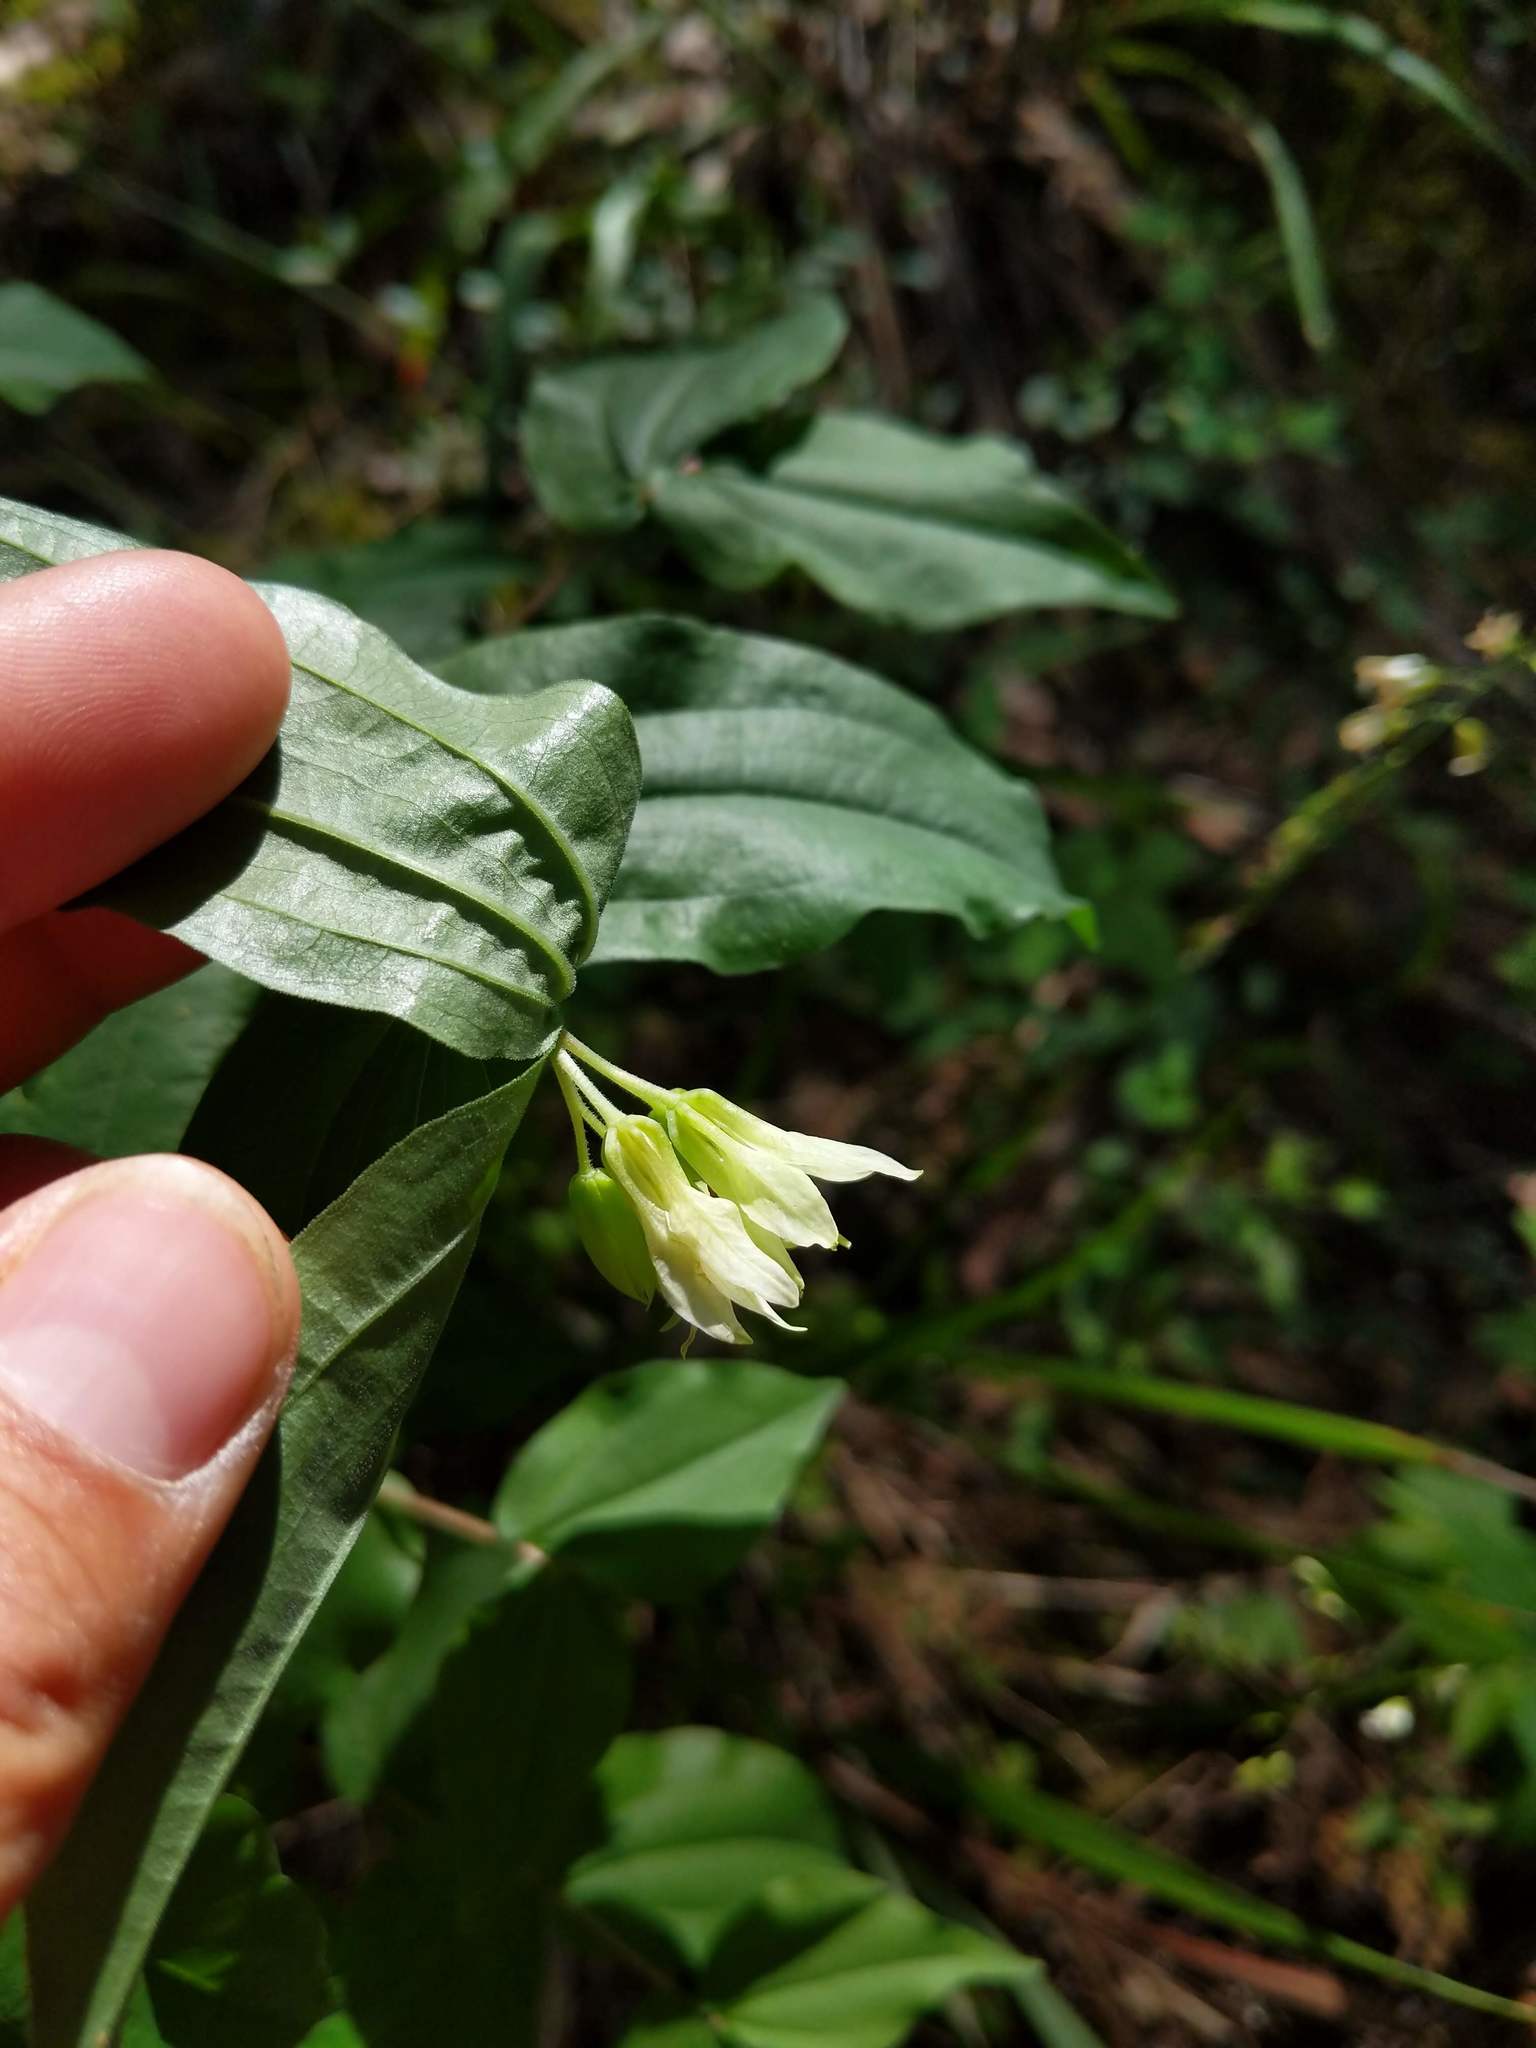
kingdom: Plantae
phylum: Tracheophyta
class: Liliopsida
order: Liliales
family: Liliaceae
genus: Prosartes
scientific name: Prosartes hookeri
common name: Fairy-bells
